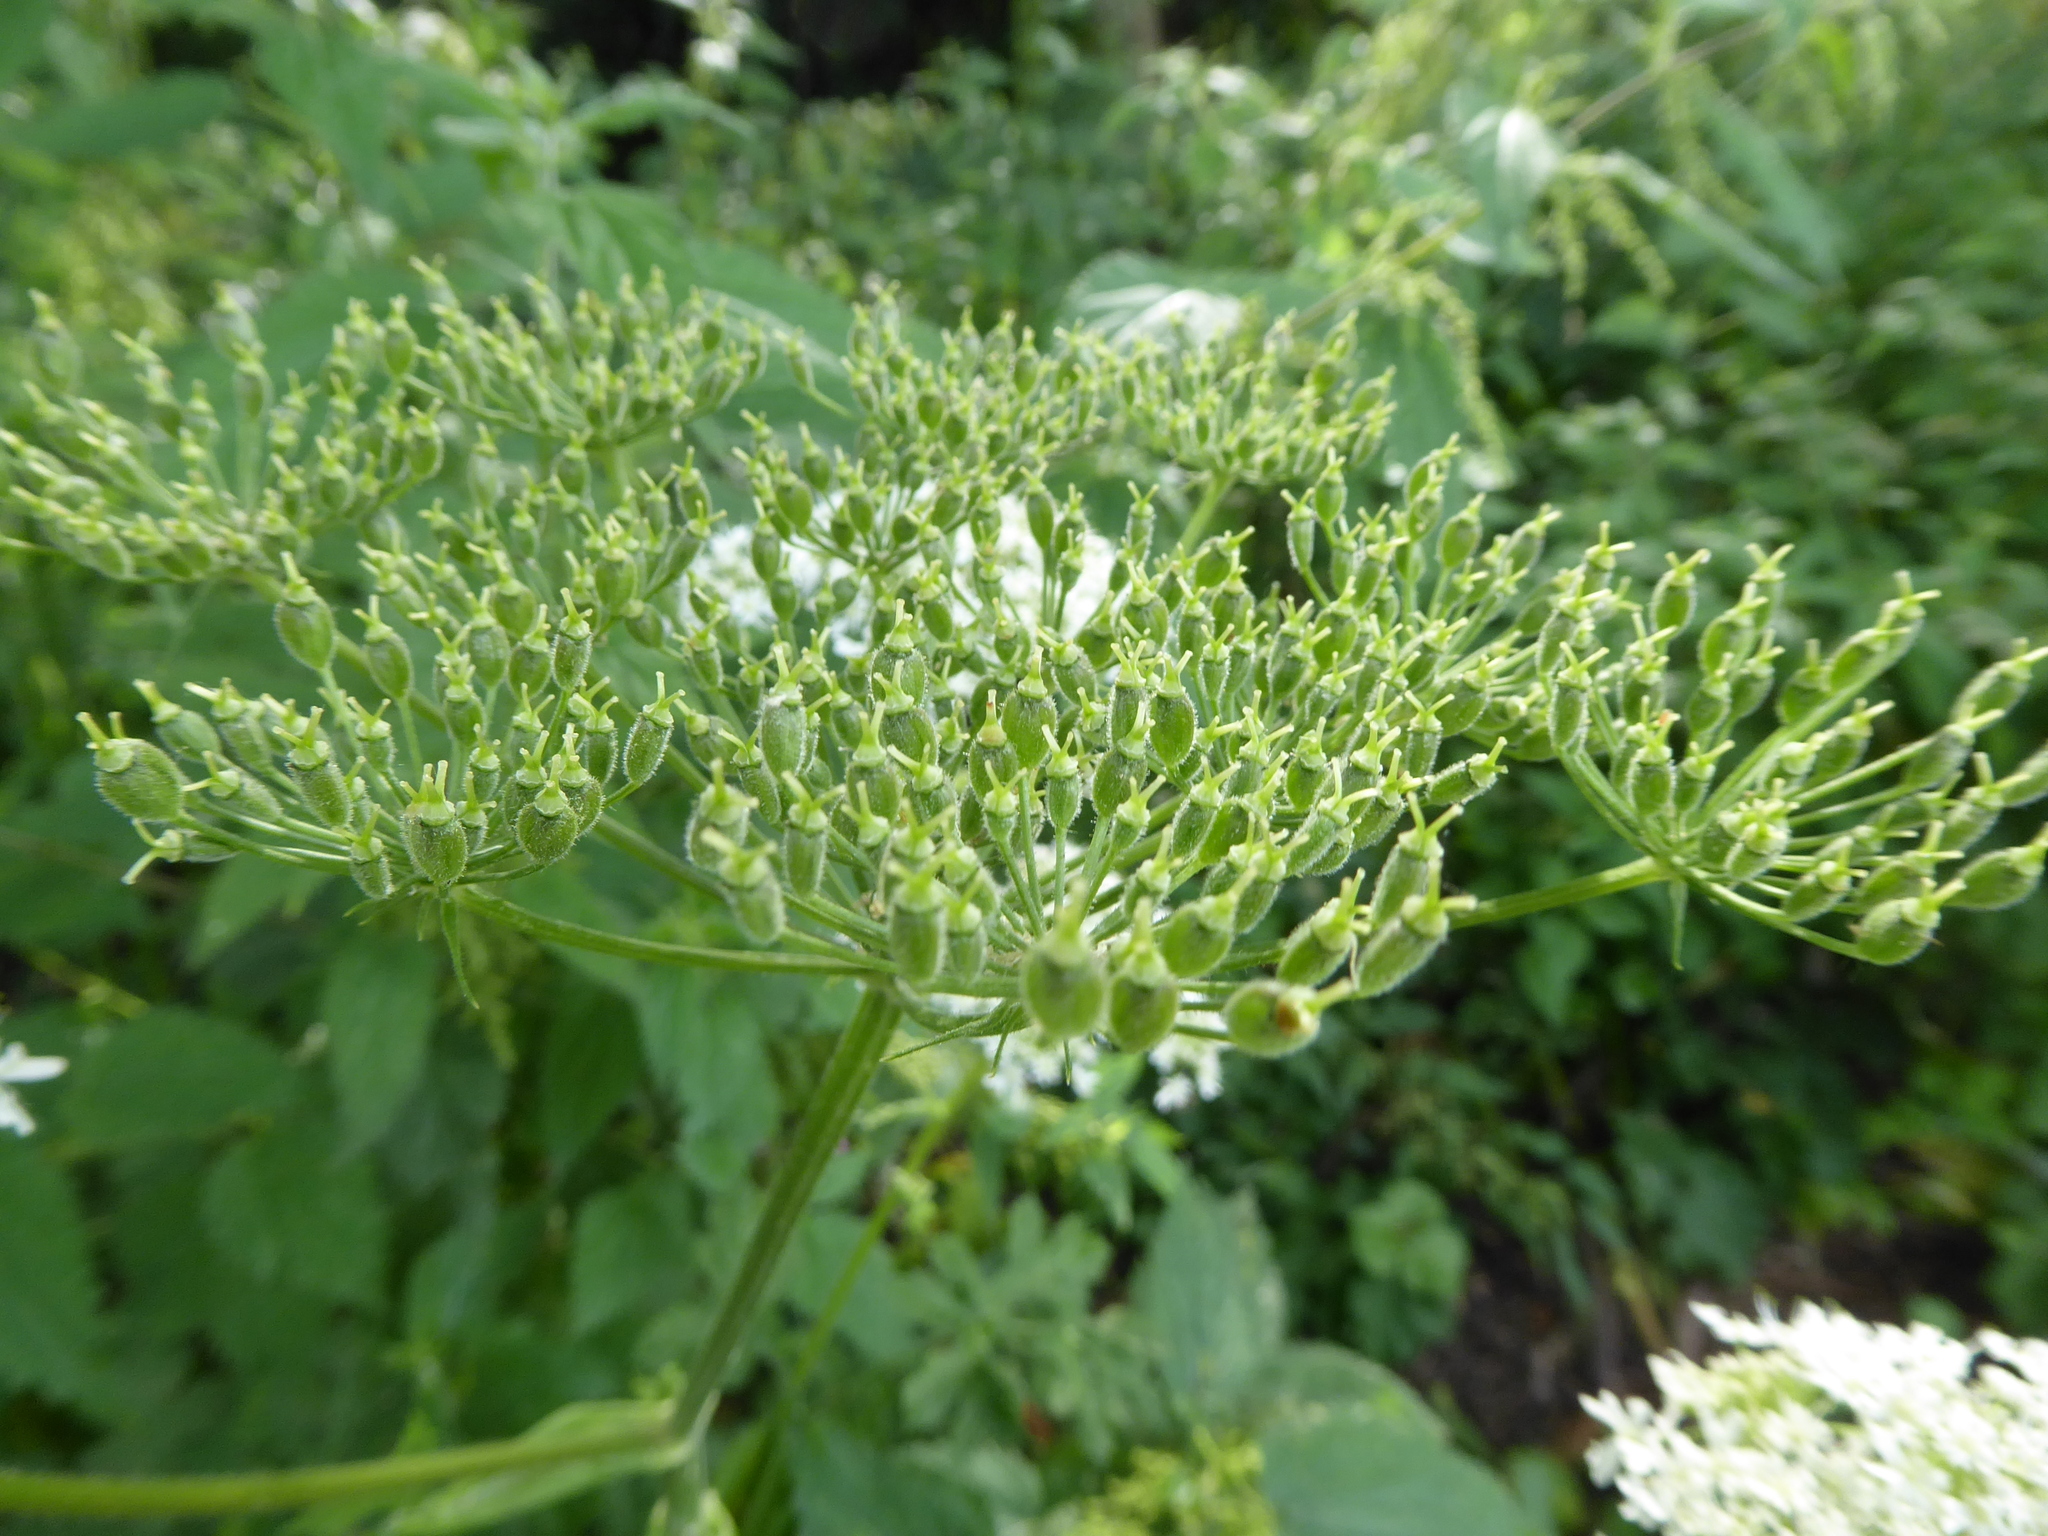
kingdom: Plantae
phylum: Tracheophyta
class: Magnoliopsida
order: Apiales
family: Apiaceae
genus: Heracleum
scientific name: Heracleum sphondylium
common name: Hogweed
